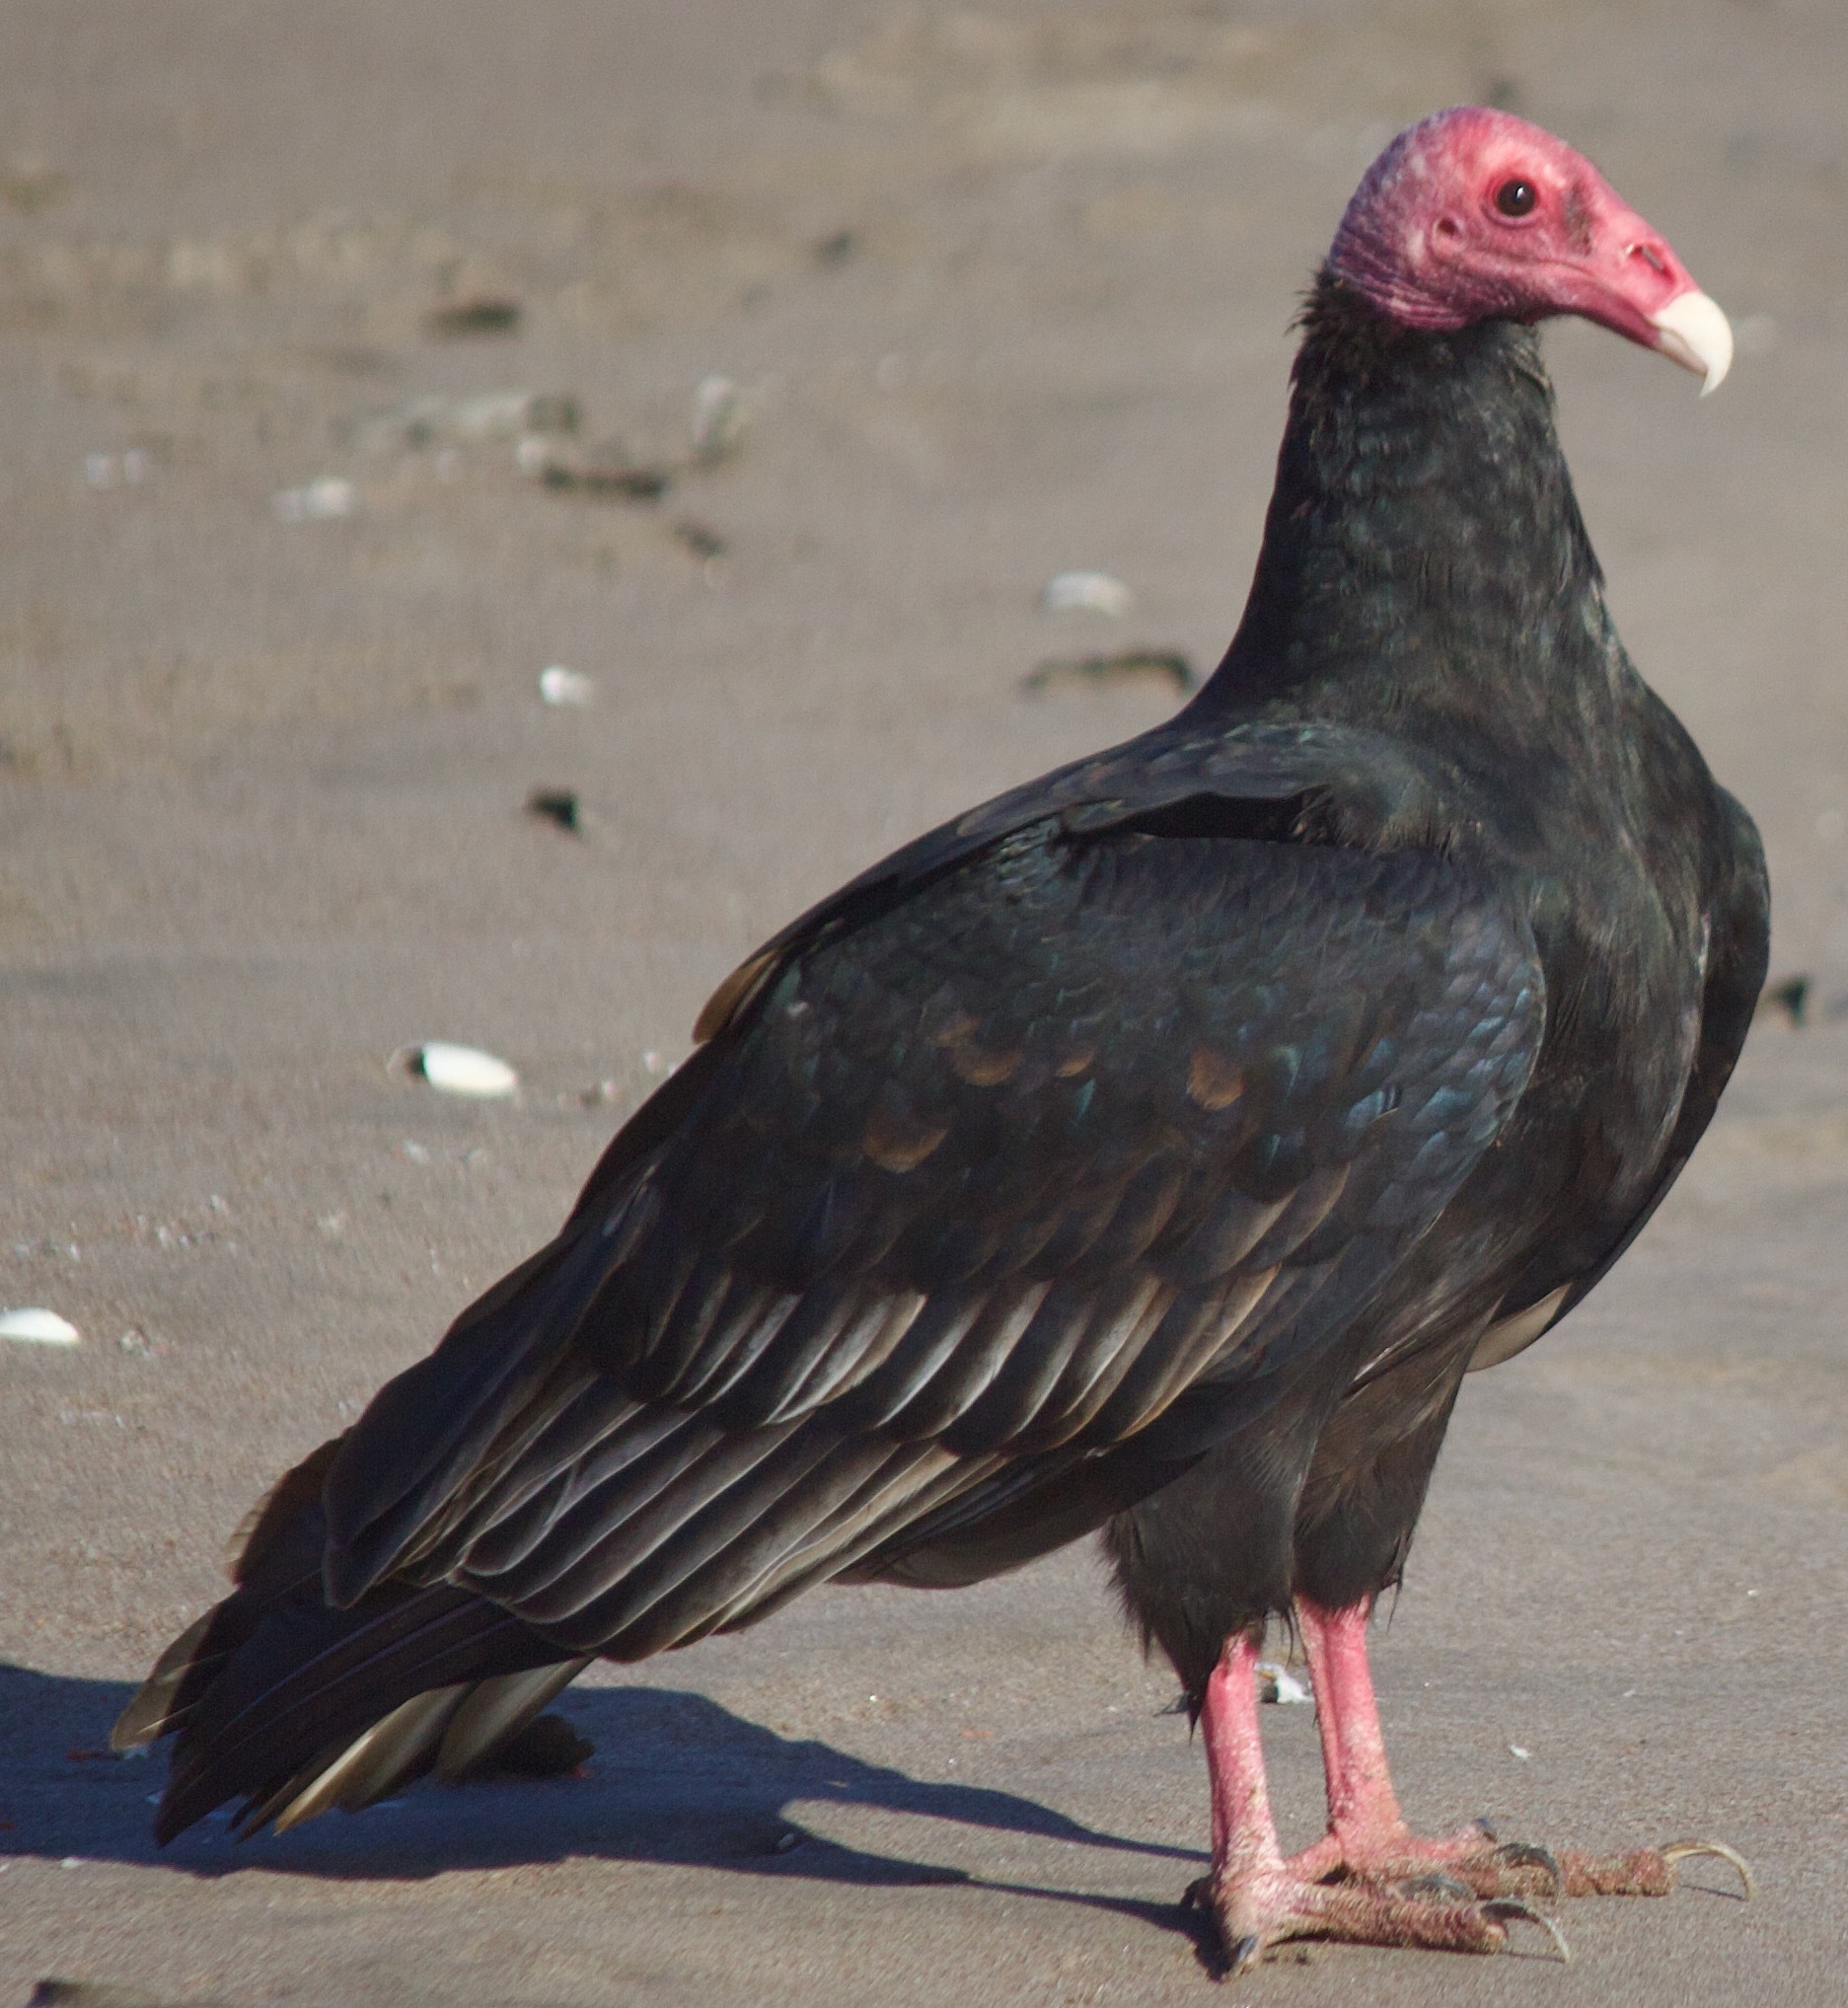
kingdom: Animalia
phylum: Chordata
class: Aves
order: Accipitriformes
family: Cathartidae
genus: Cathartes
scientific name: Cathartes aura
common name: Turkey vulture
